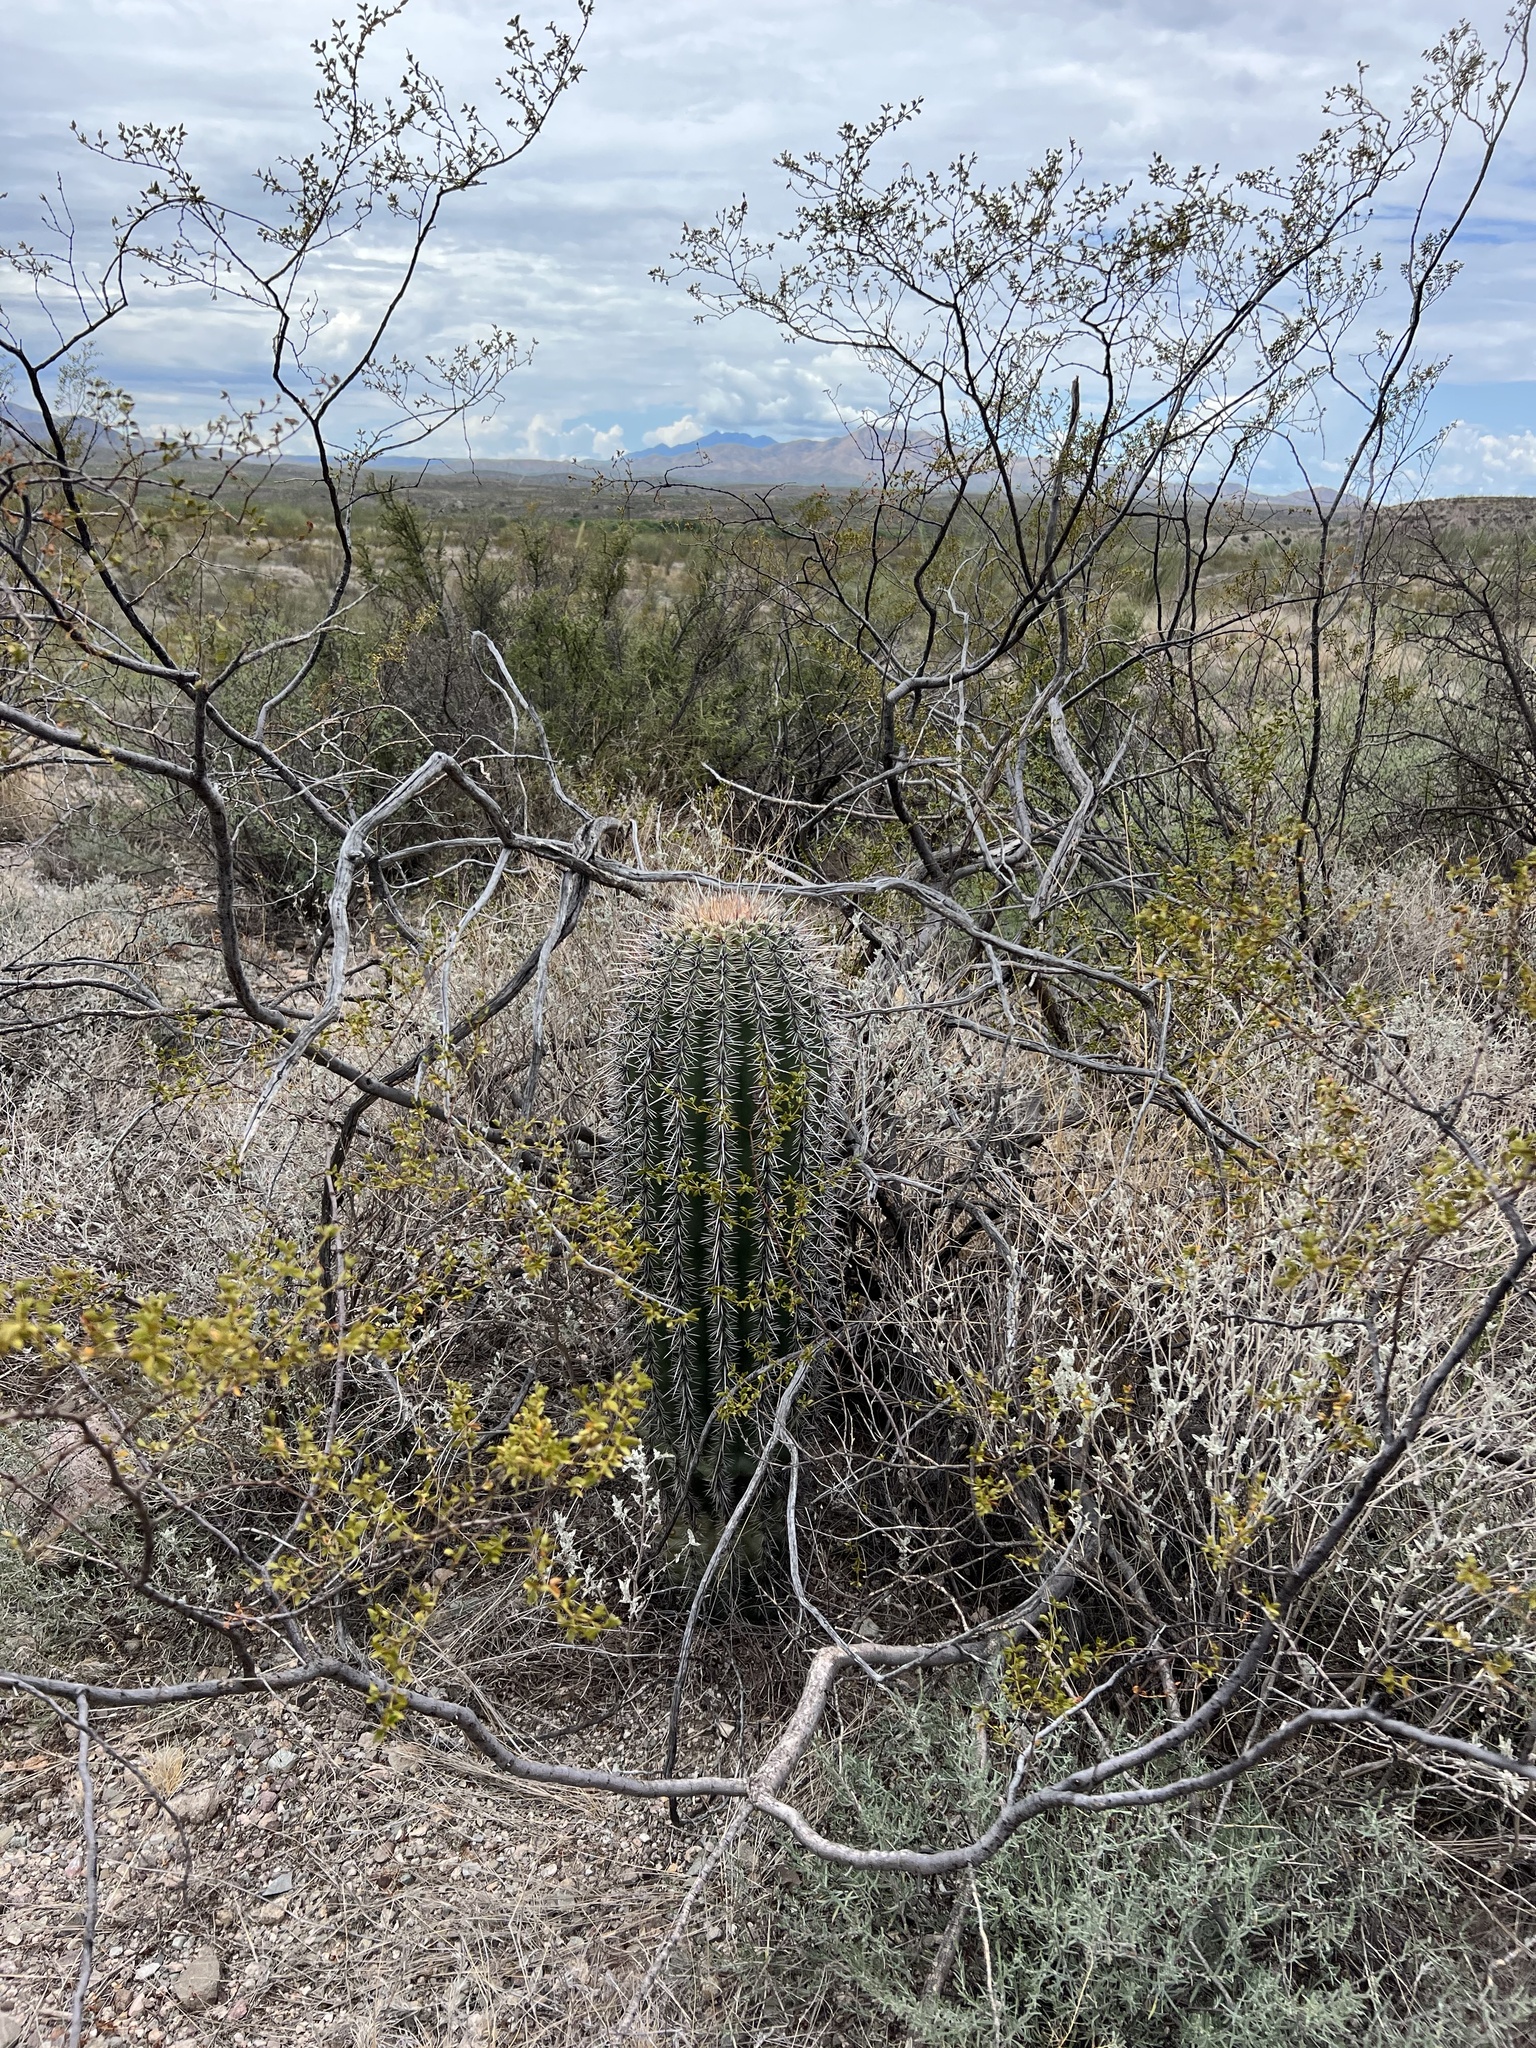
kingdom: Plantae
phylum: Tracheophyta
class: Magnoliopsida
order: Caryophyllales
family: Cactaceae
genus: Carnegiea
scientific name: Carnegiea gigantea
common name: Saguaro
